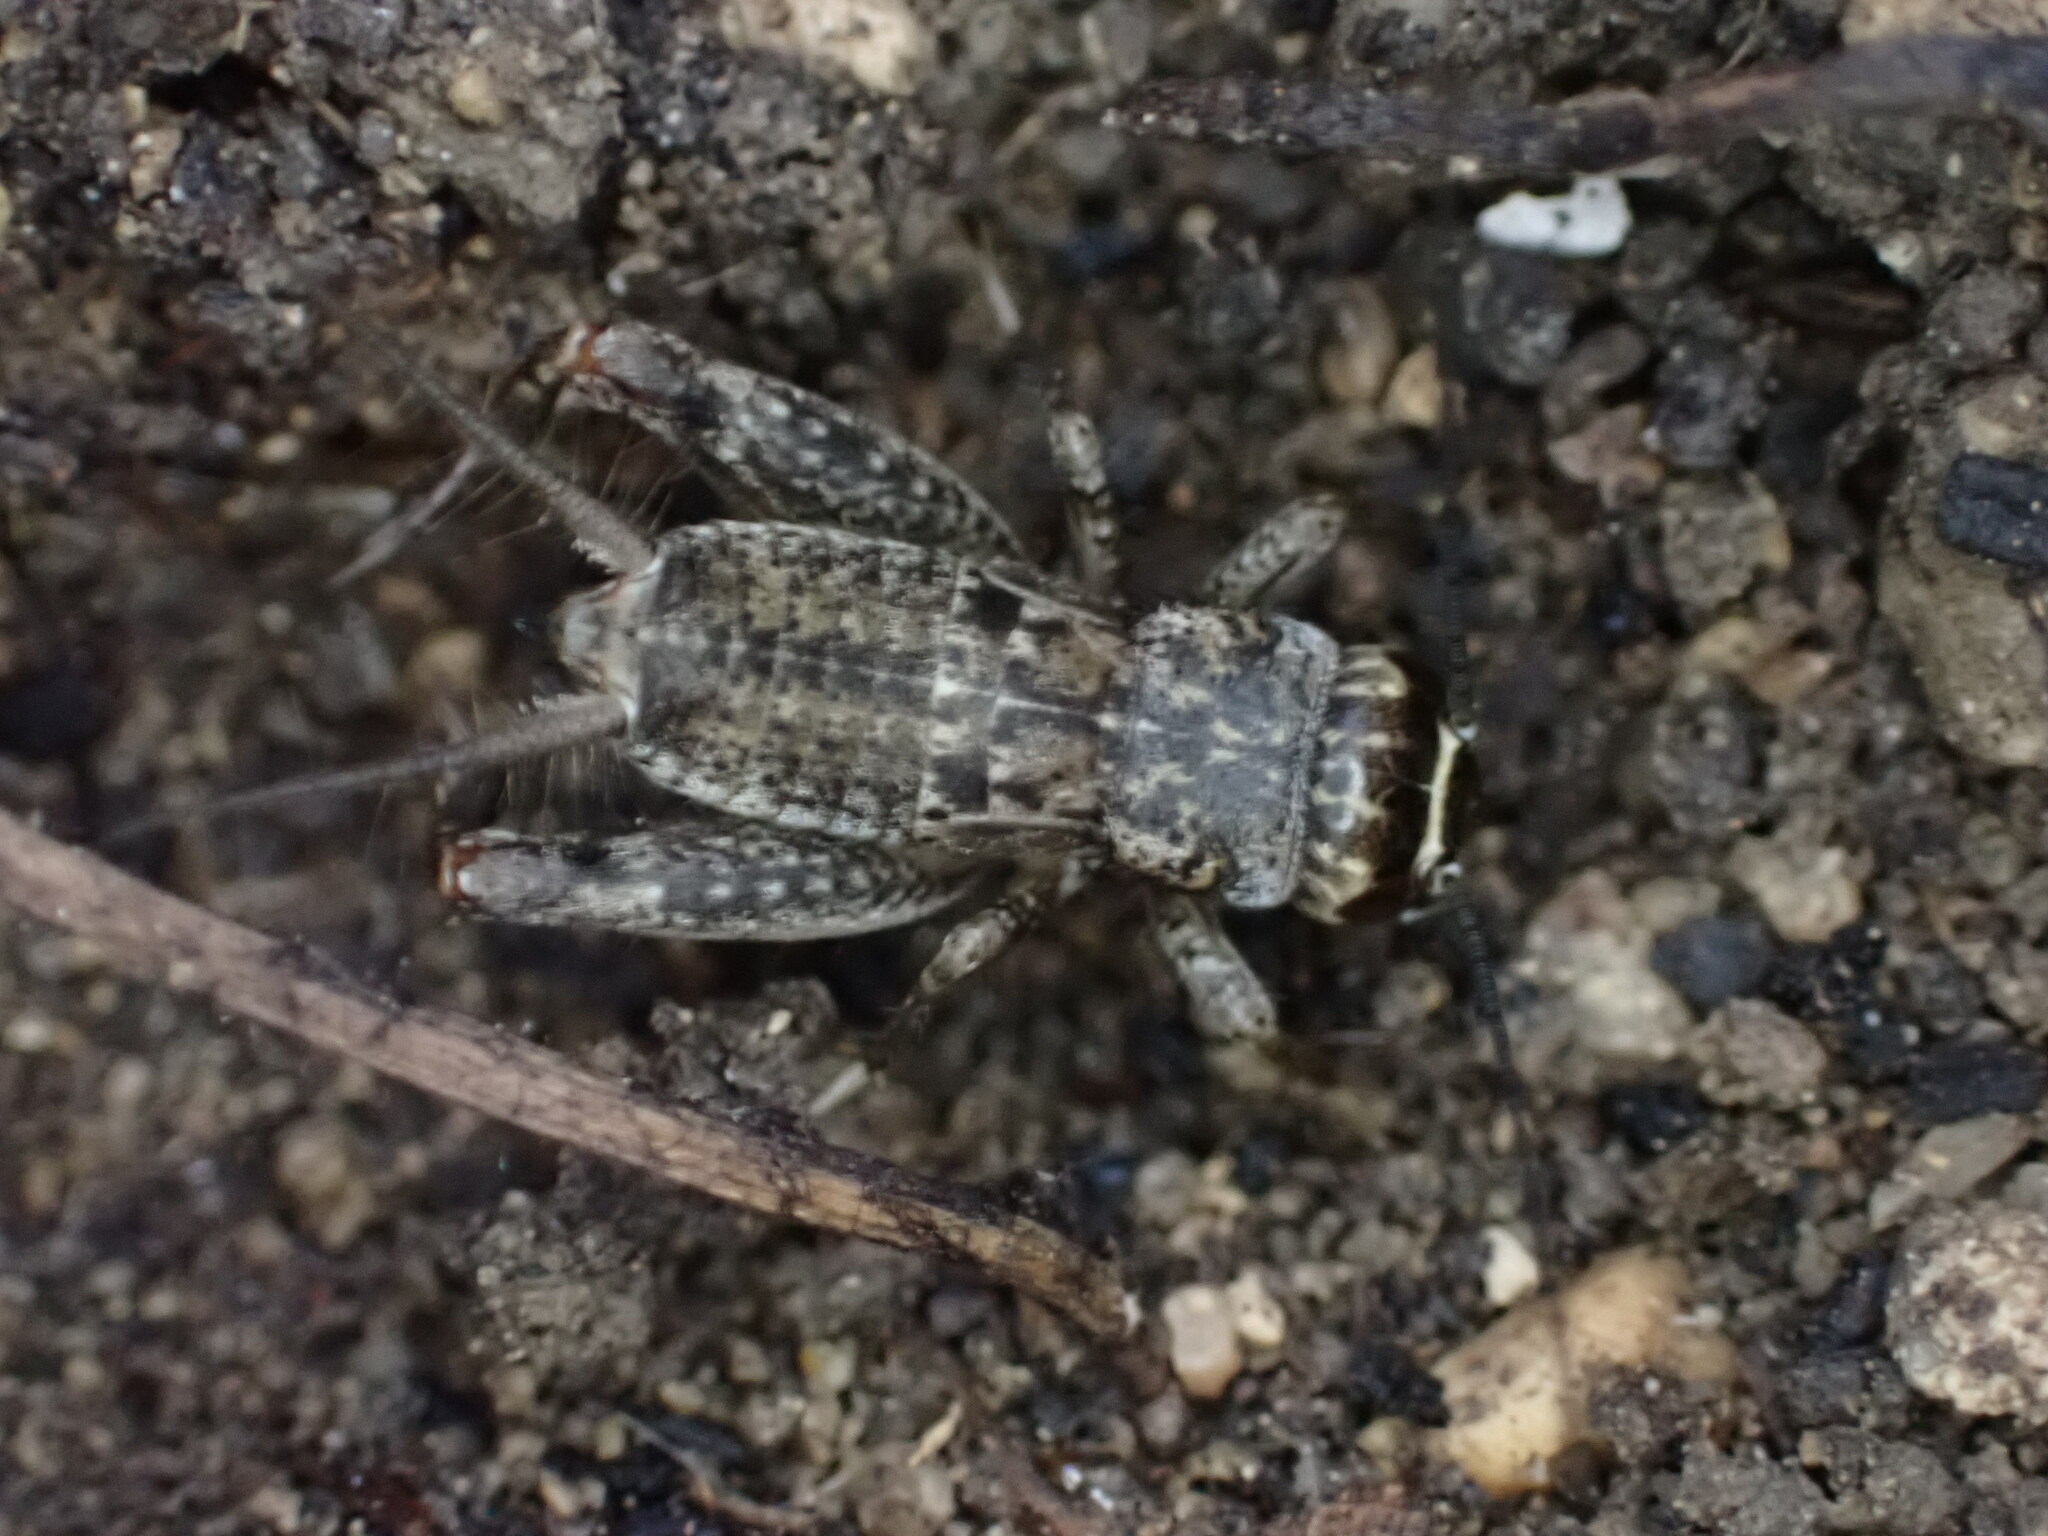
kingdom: Animalia
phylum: Arthropoda
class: Insecta
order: Orthoptera
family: Gryllidae
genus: Eumodicogryllus
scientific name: Eumodicogryllus bordigalensis
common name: Bordeaux cricket
